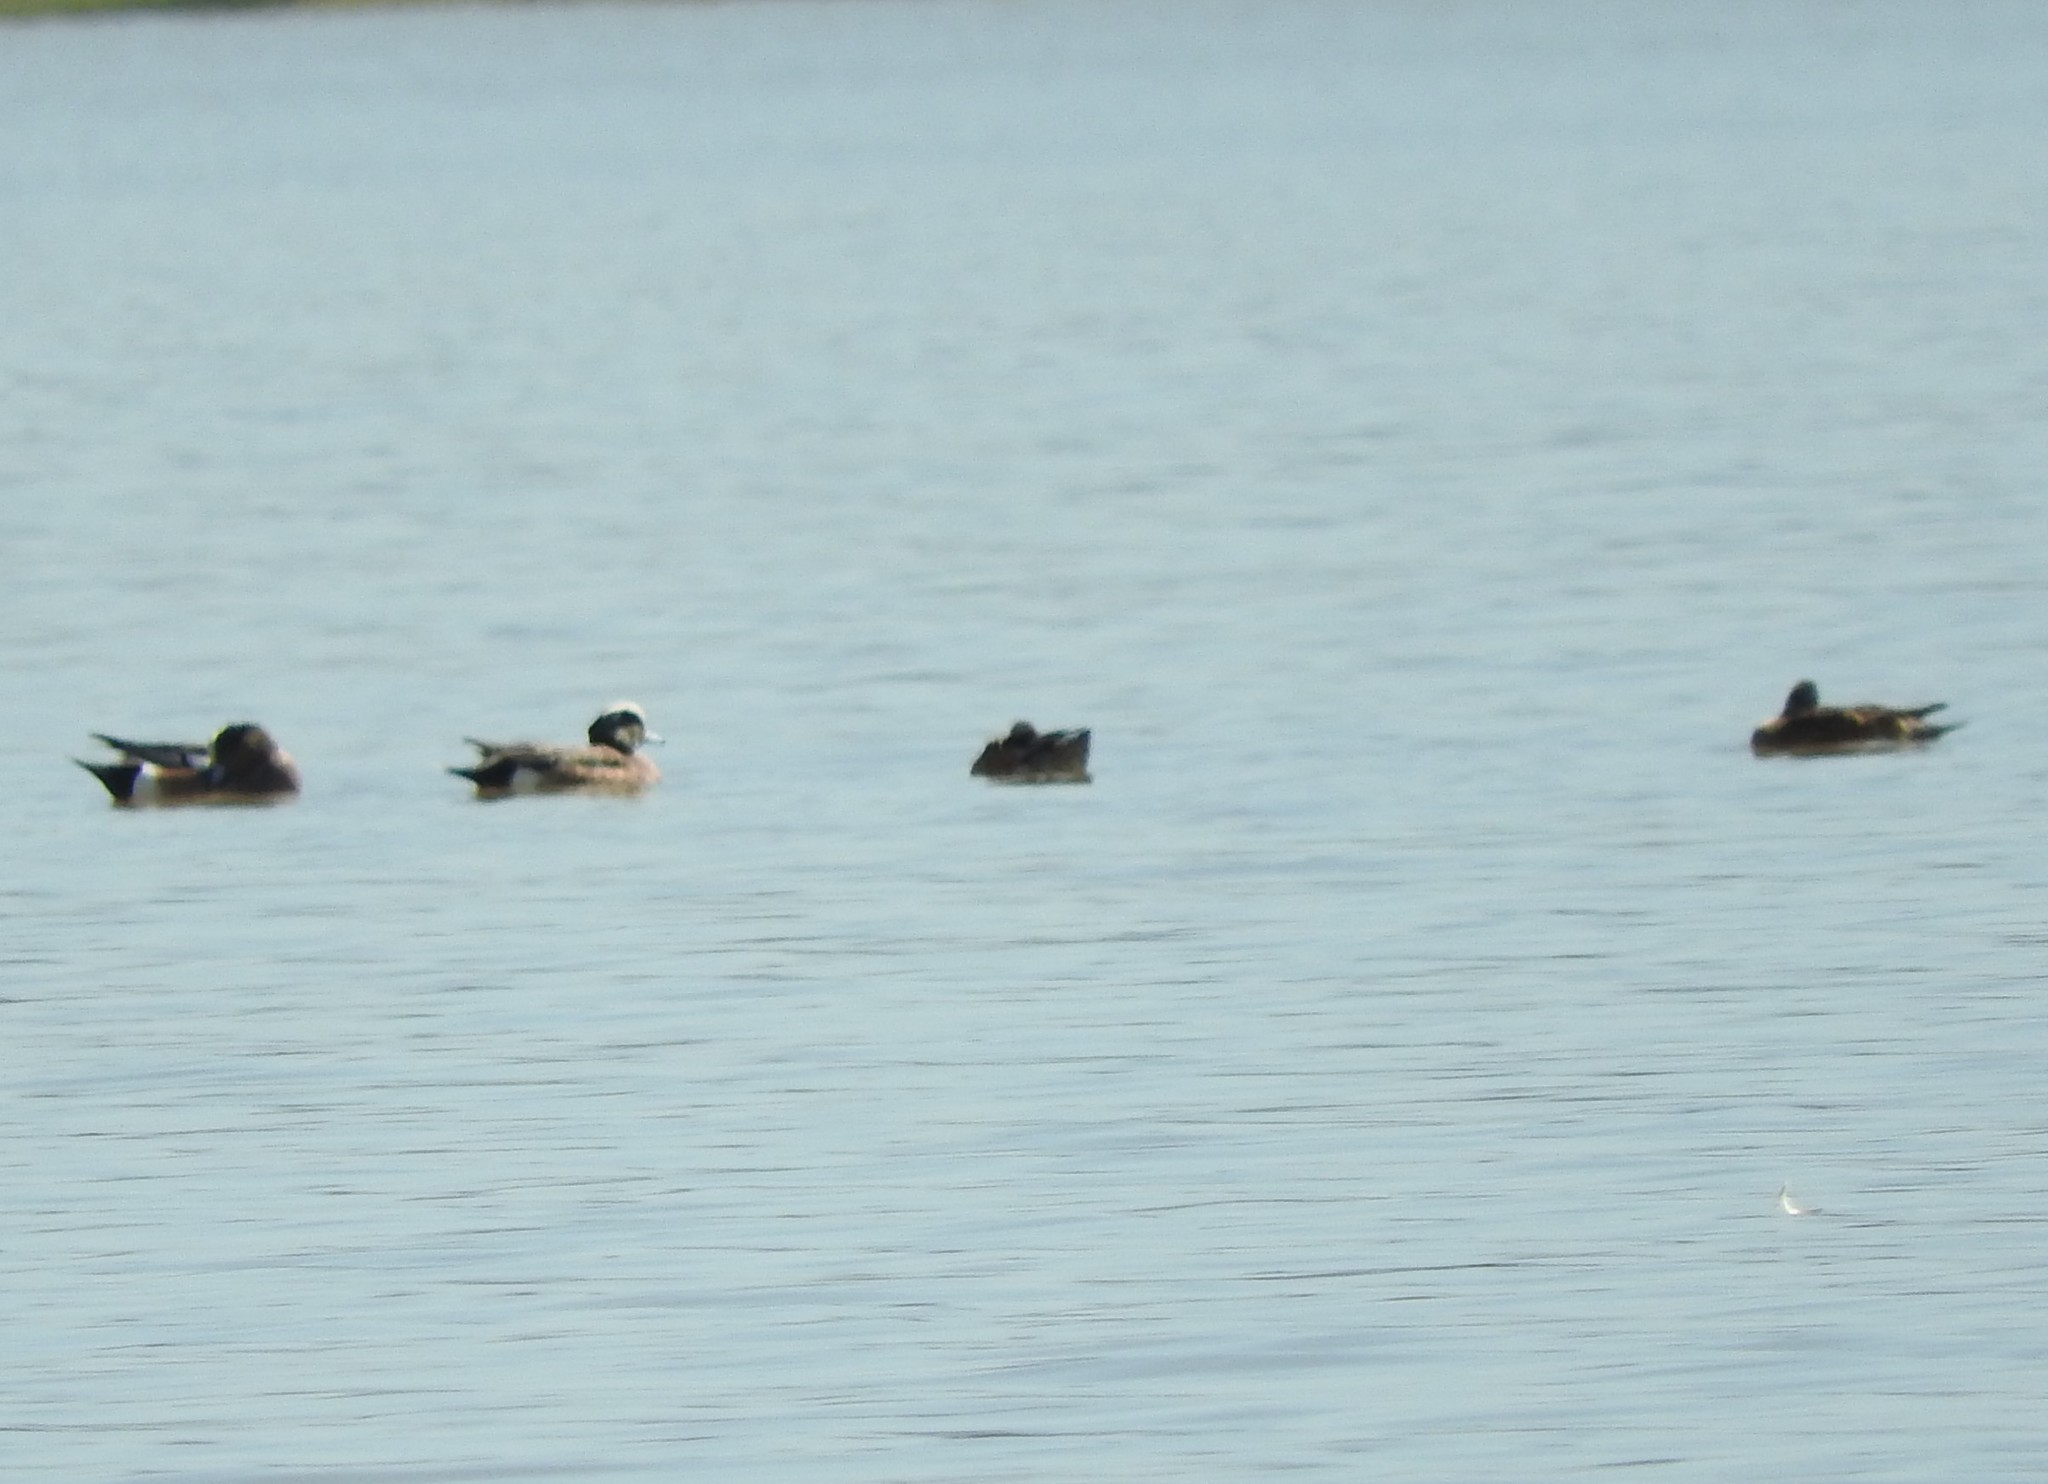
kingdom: Animalia
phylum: Chordata
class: Aves
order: Anseriformes
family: Anatidae
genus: Mareca
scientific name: Mareca americana
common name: American wigeon
